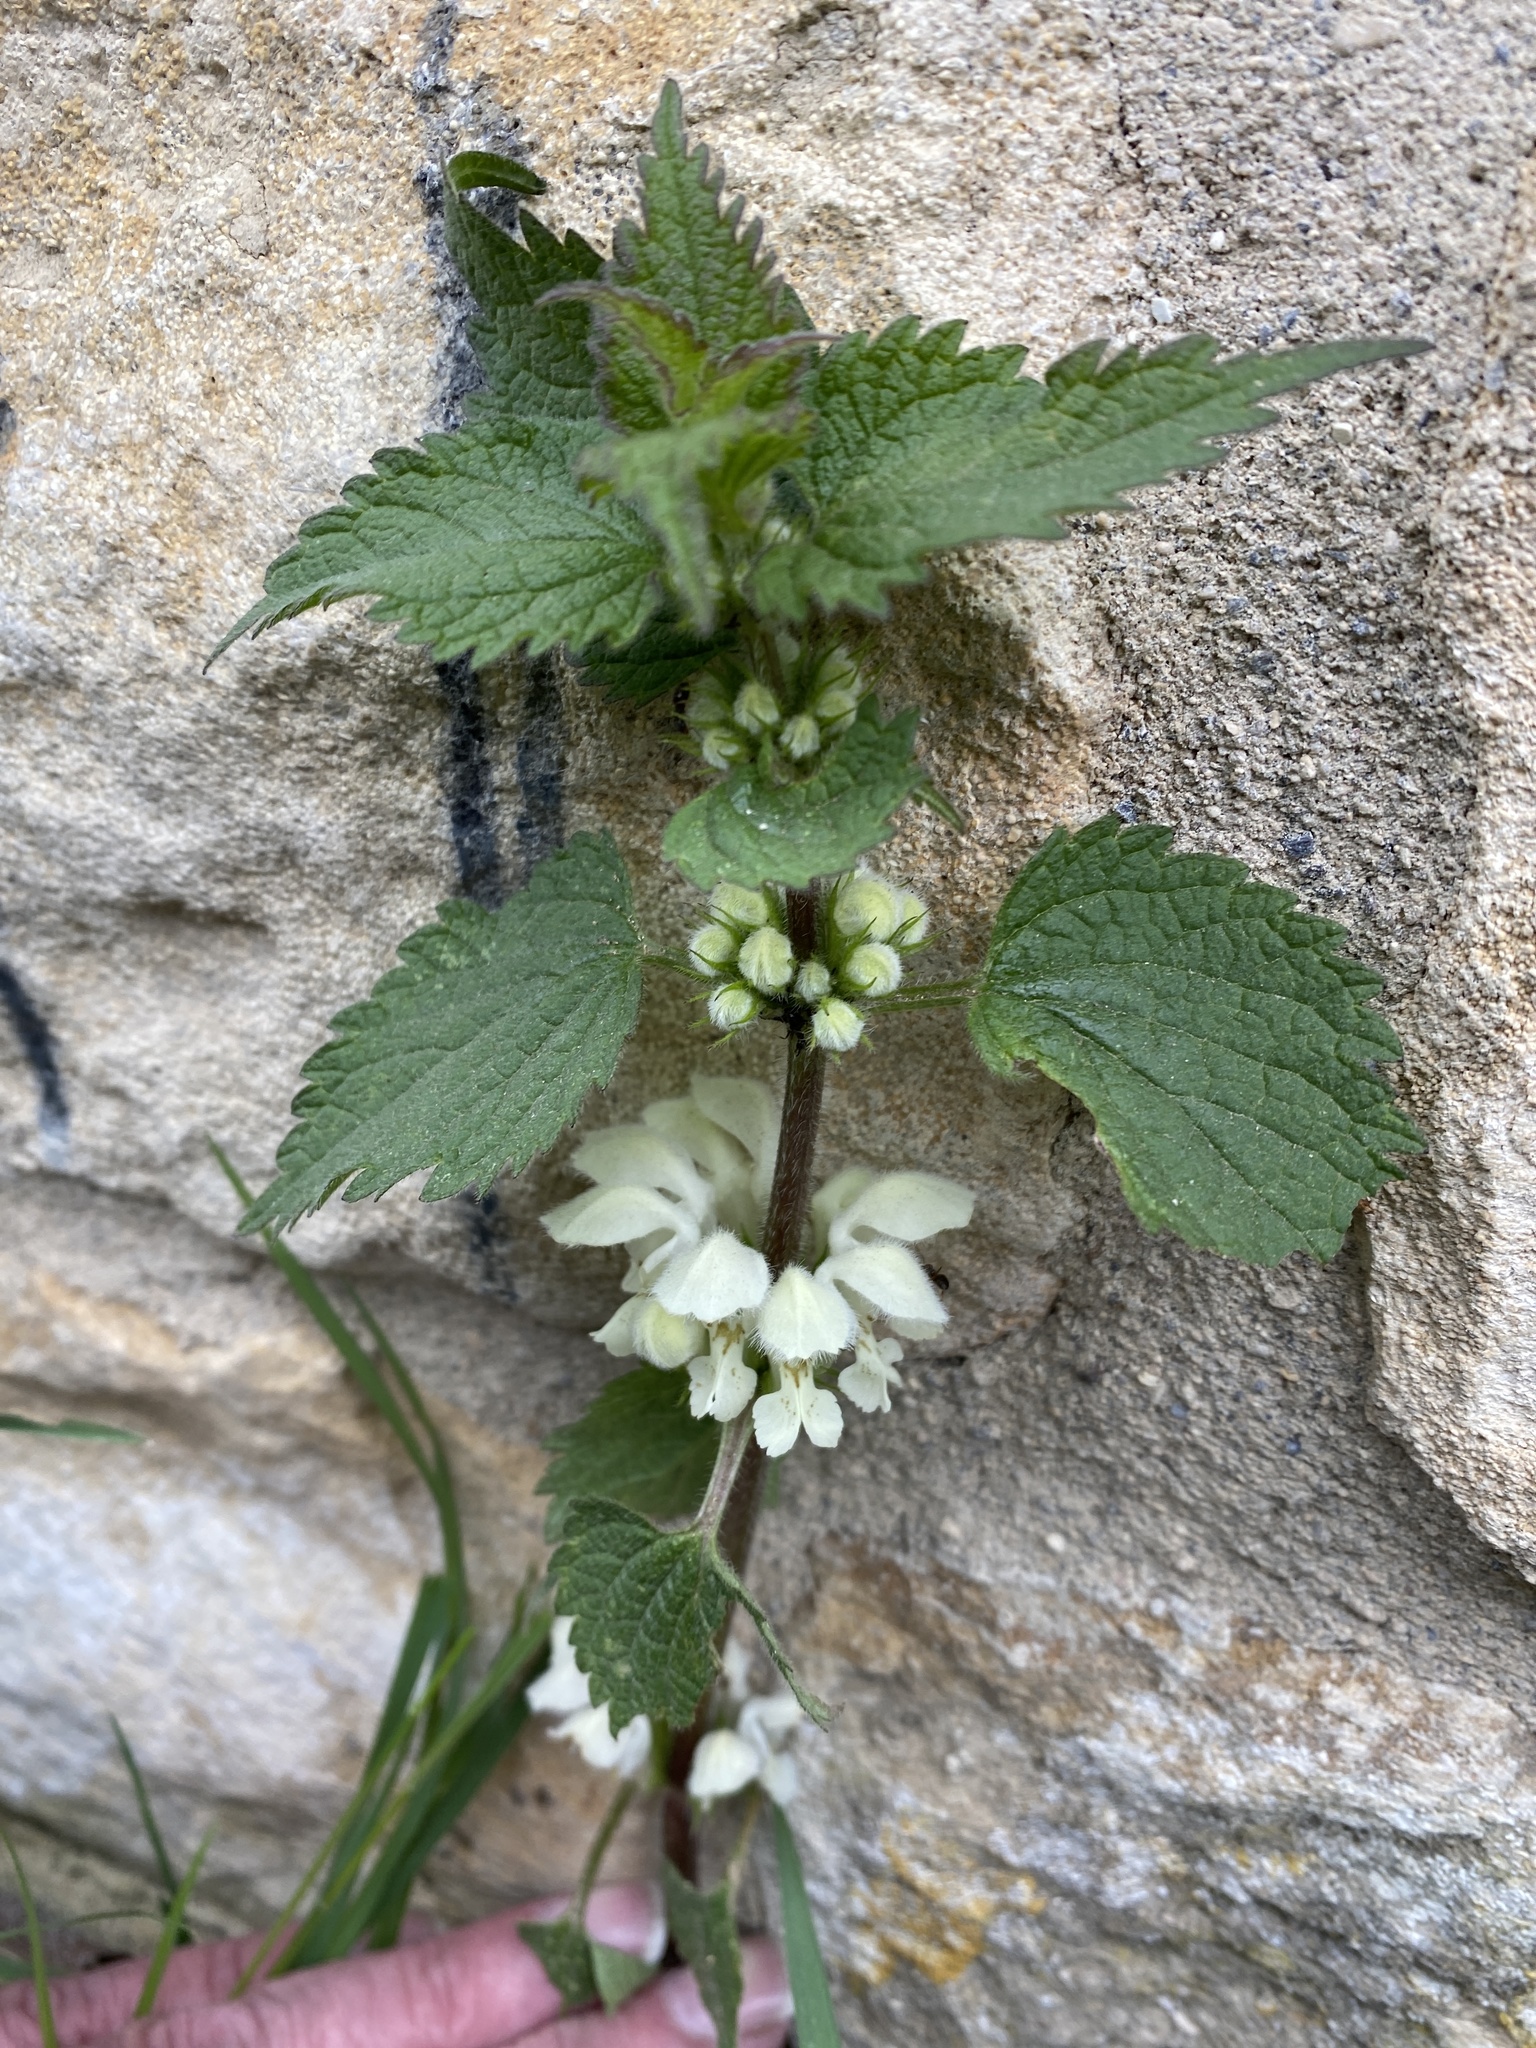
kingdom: Plantae
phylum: Tracheophyta
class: Magnoliopsida
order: Lamiales
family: Lamiaceae
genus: Lamium
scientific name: Lamium album
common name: White dead-nettle
